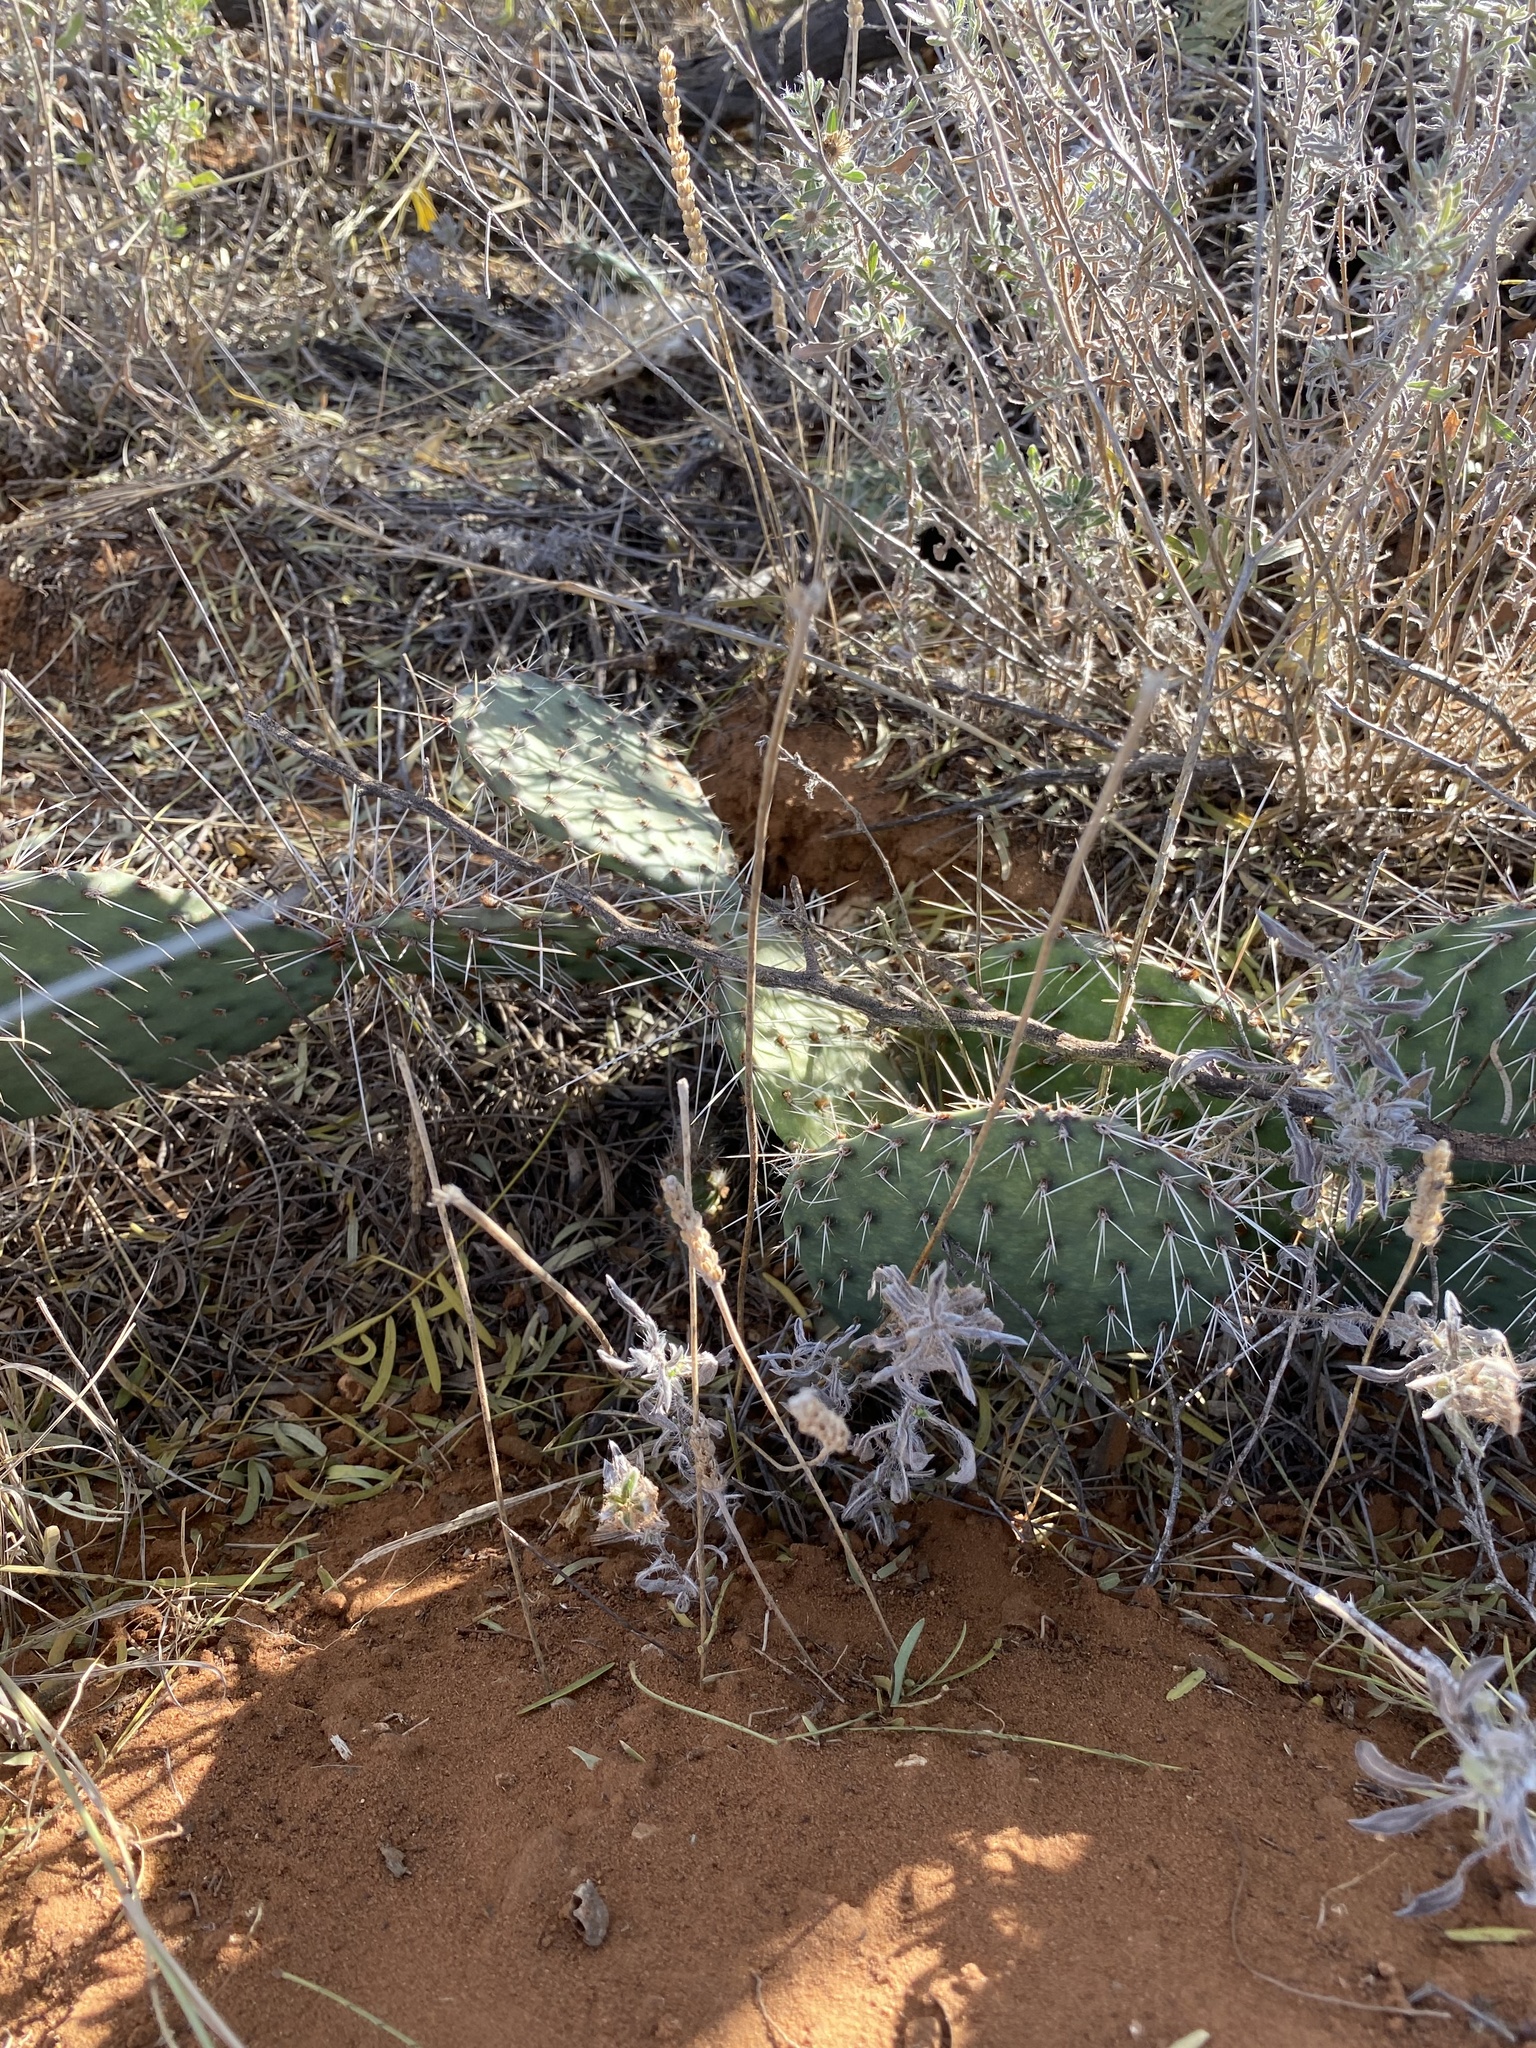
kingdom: Plantae
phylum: Tracheophyta
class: Magnoliopsida
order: Caryophyllales
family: Cactaceae
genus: Opuntia
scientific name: Opuntia cymochila
